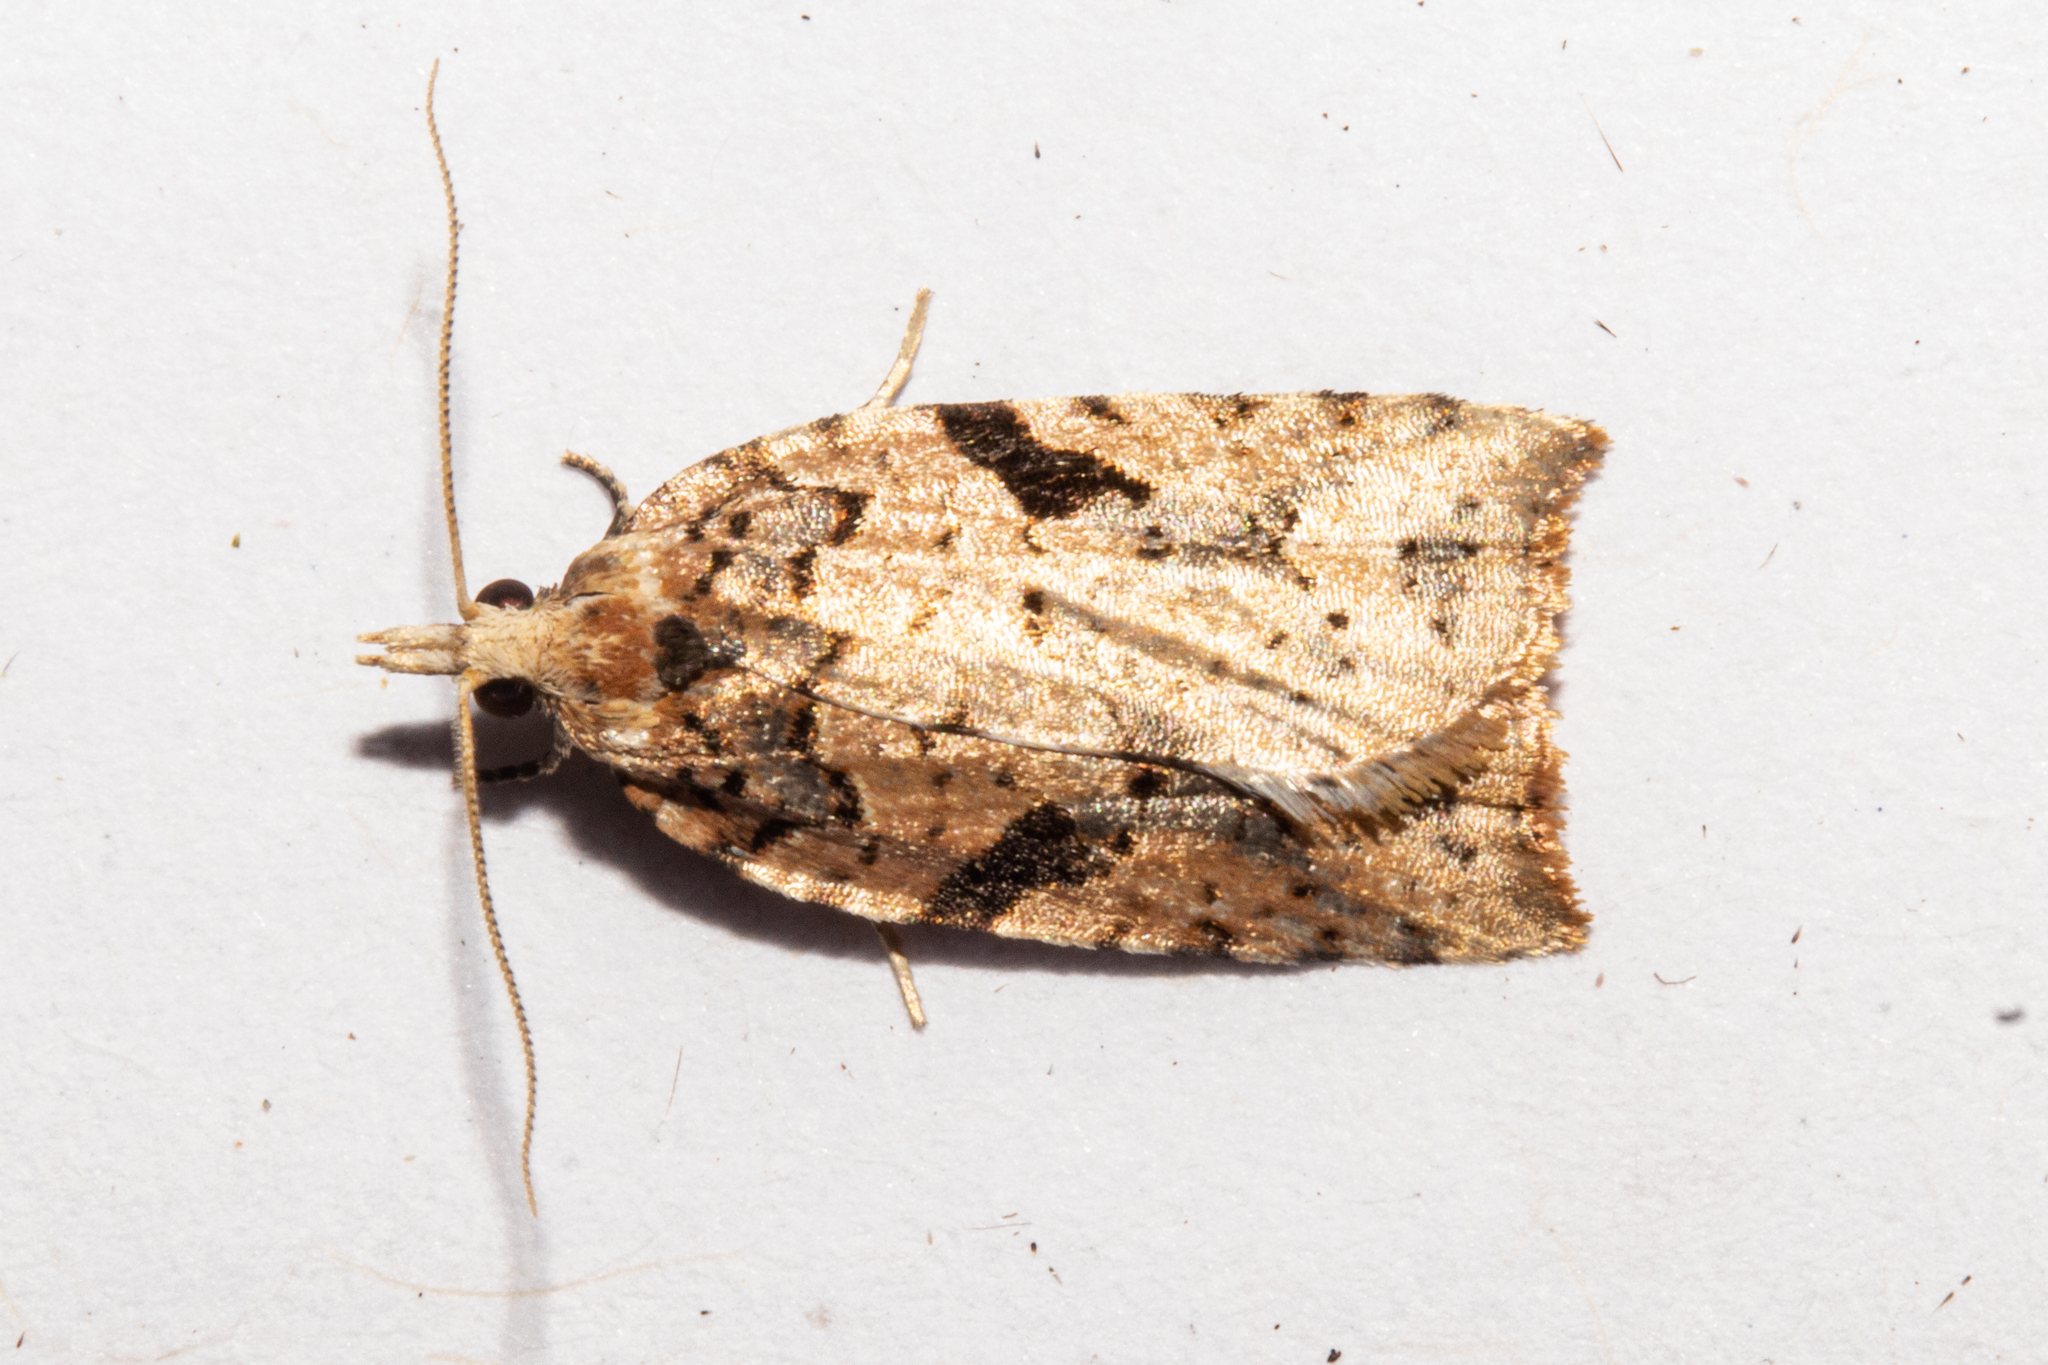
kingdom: Animalia
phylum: Arthropoda
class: Insecta
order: Lepidoptera
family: Tortricidae
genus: Leucotenes
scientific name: Leucotenes coprosmae
